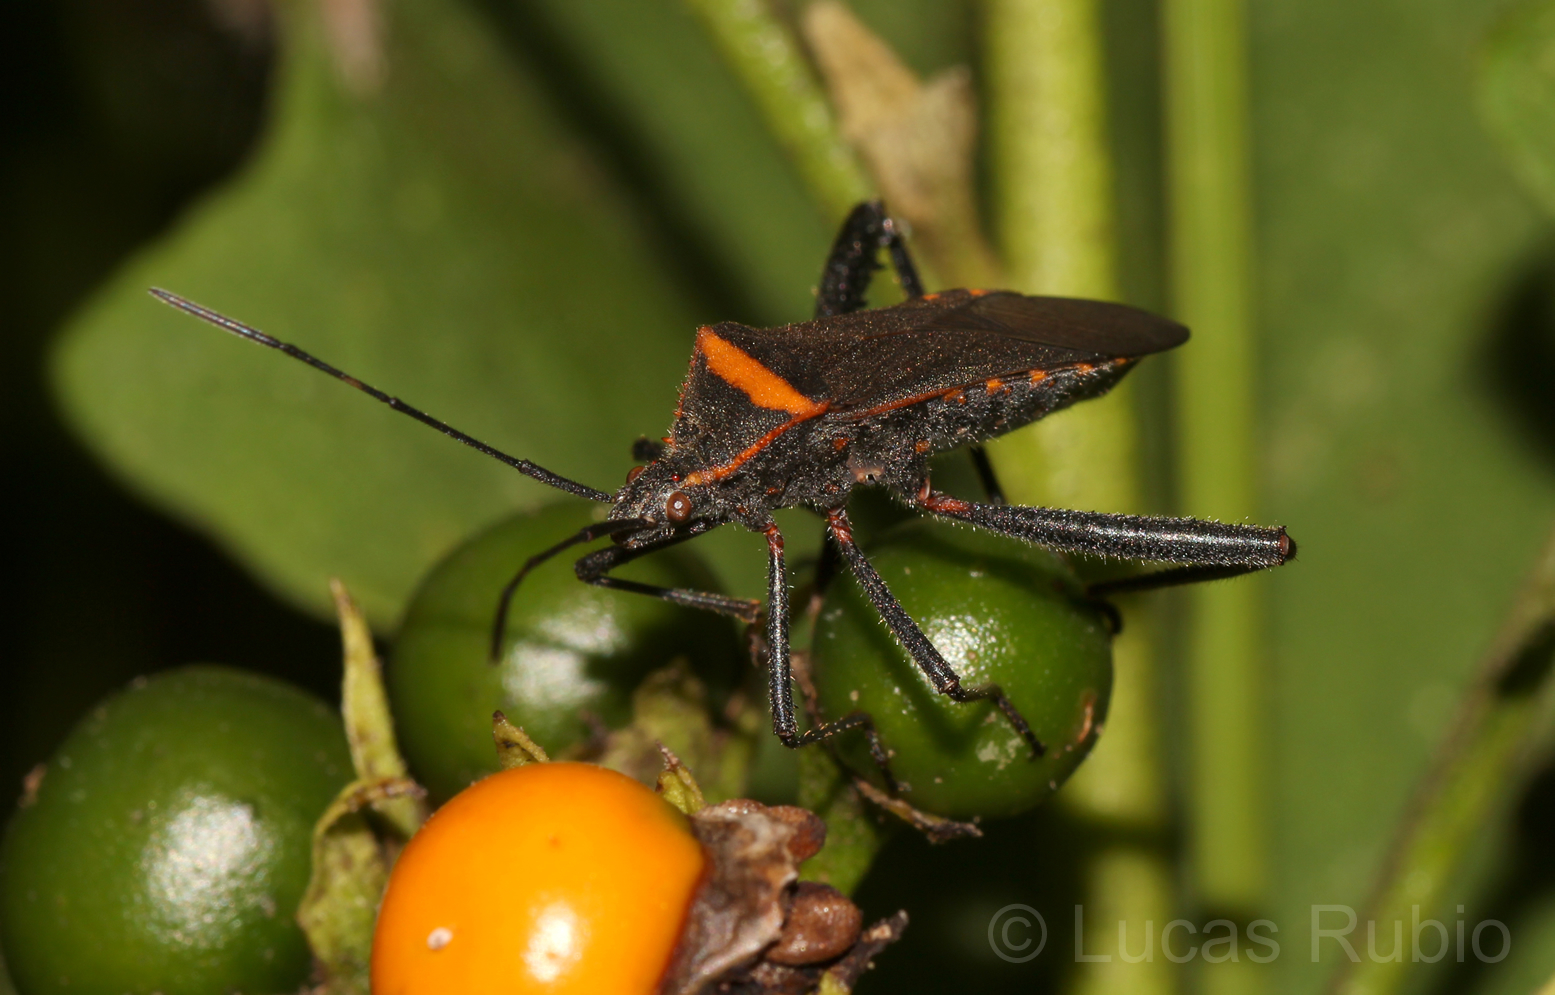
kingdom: Animalia
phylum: Arthropoda
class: Insecta
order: Hemiptera
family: Coreidae
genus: Phthiacnemia
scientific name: Phthiacnemia picta
